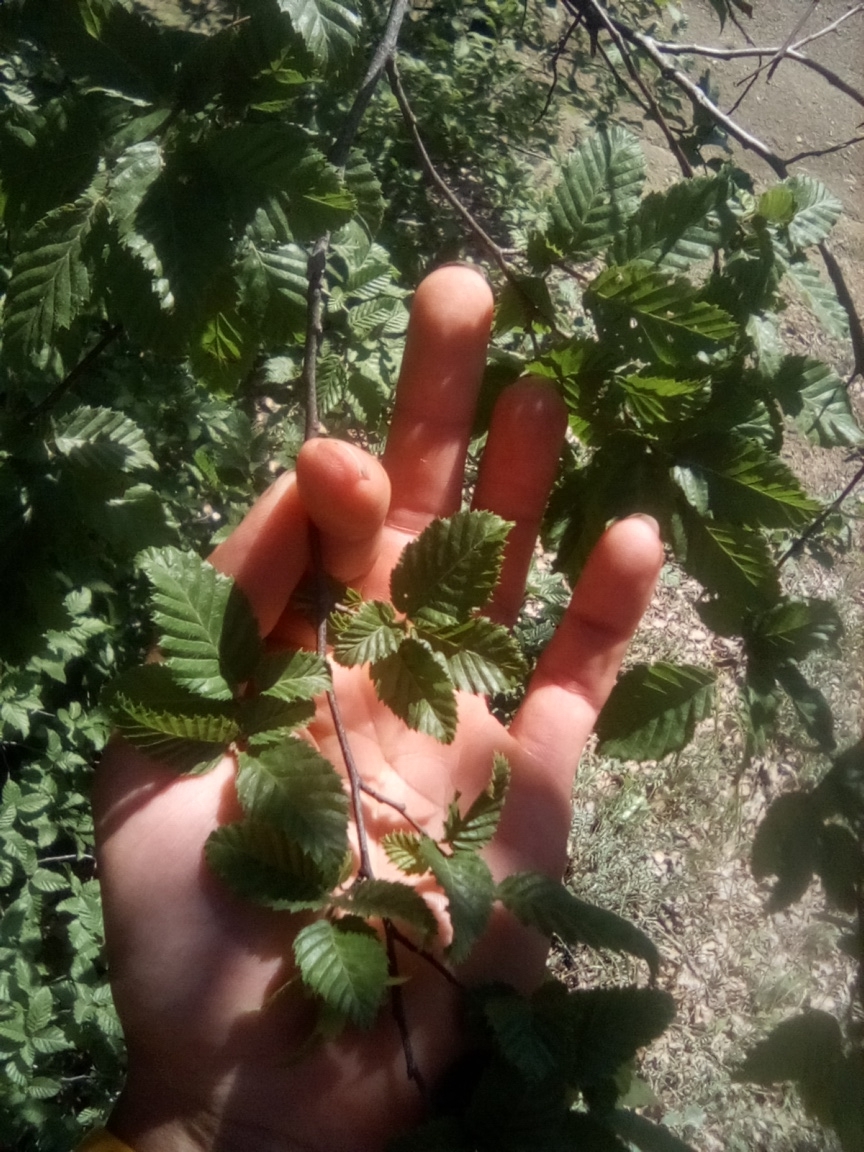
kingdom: Plantae
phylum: Tracheophyta
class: Magnoliopsida
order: Fagales
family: Betulaceae
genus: Carpinus
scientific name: Carpinus orientalis
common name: Eastern hornbeam
